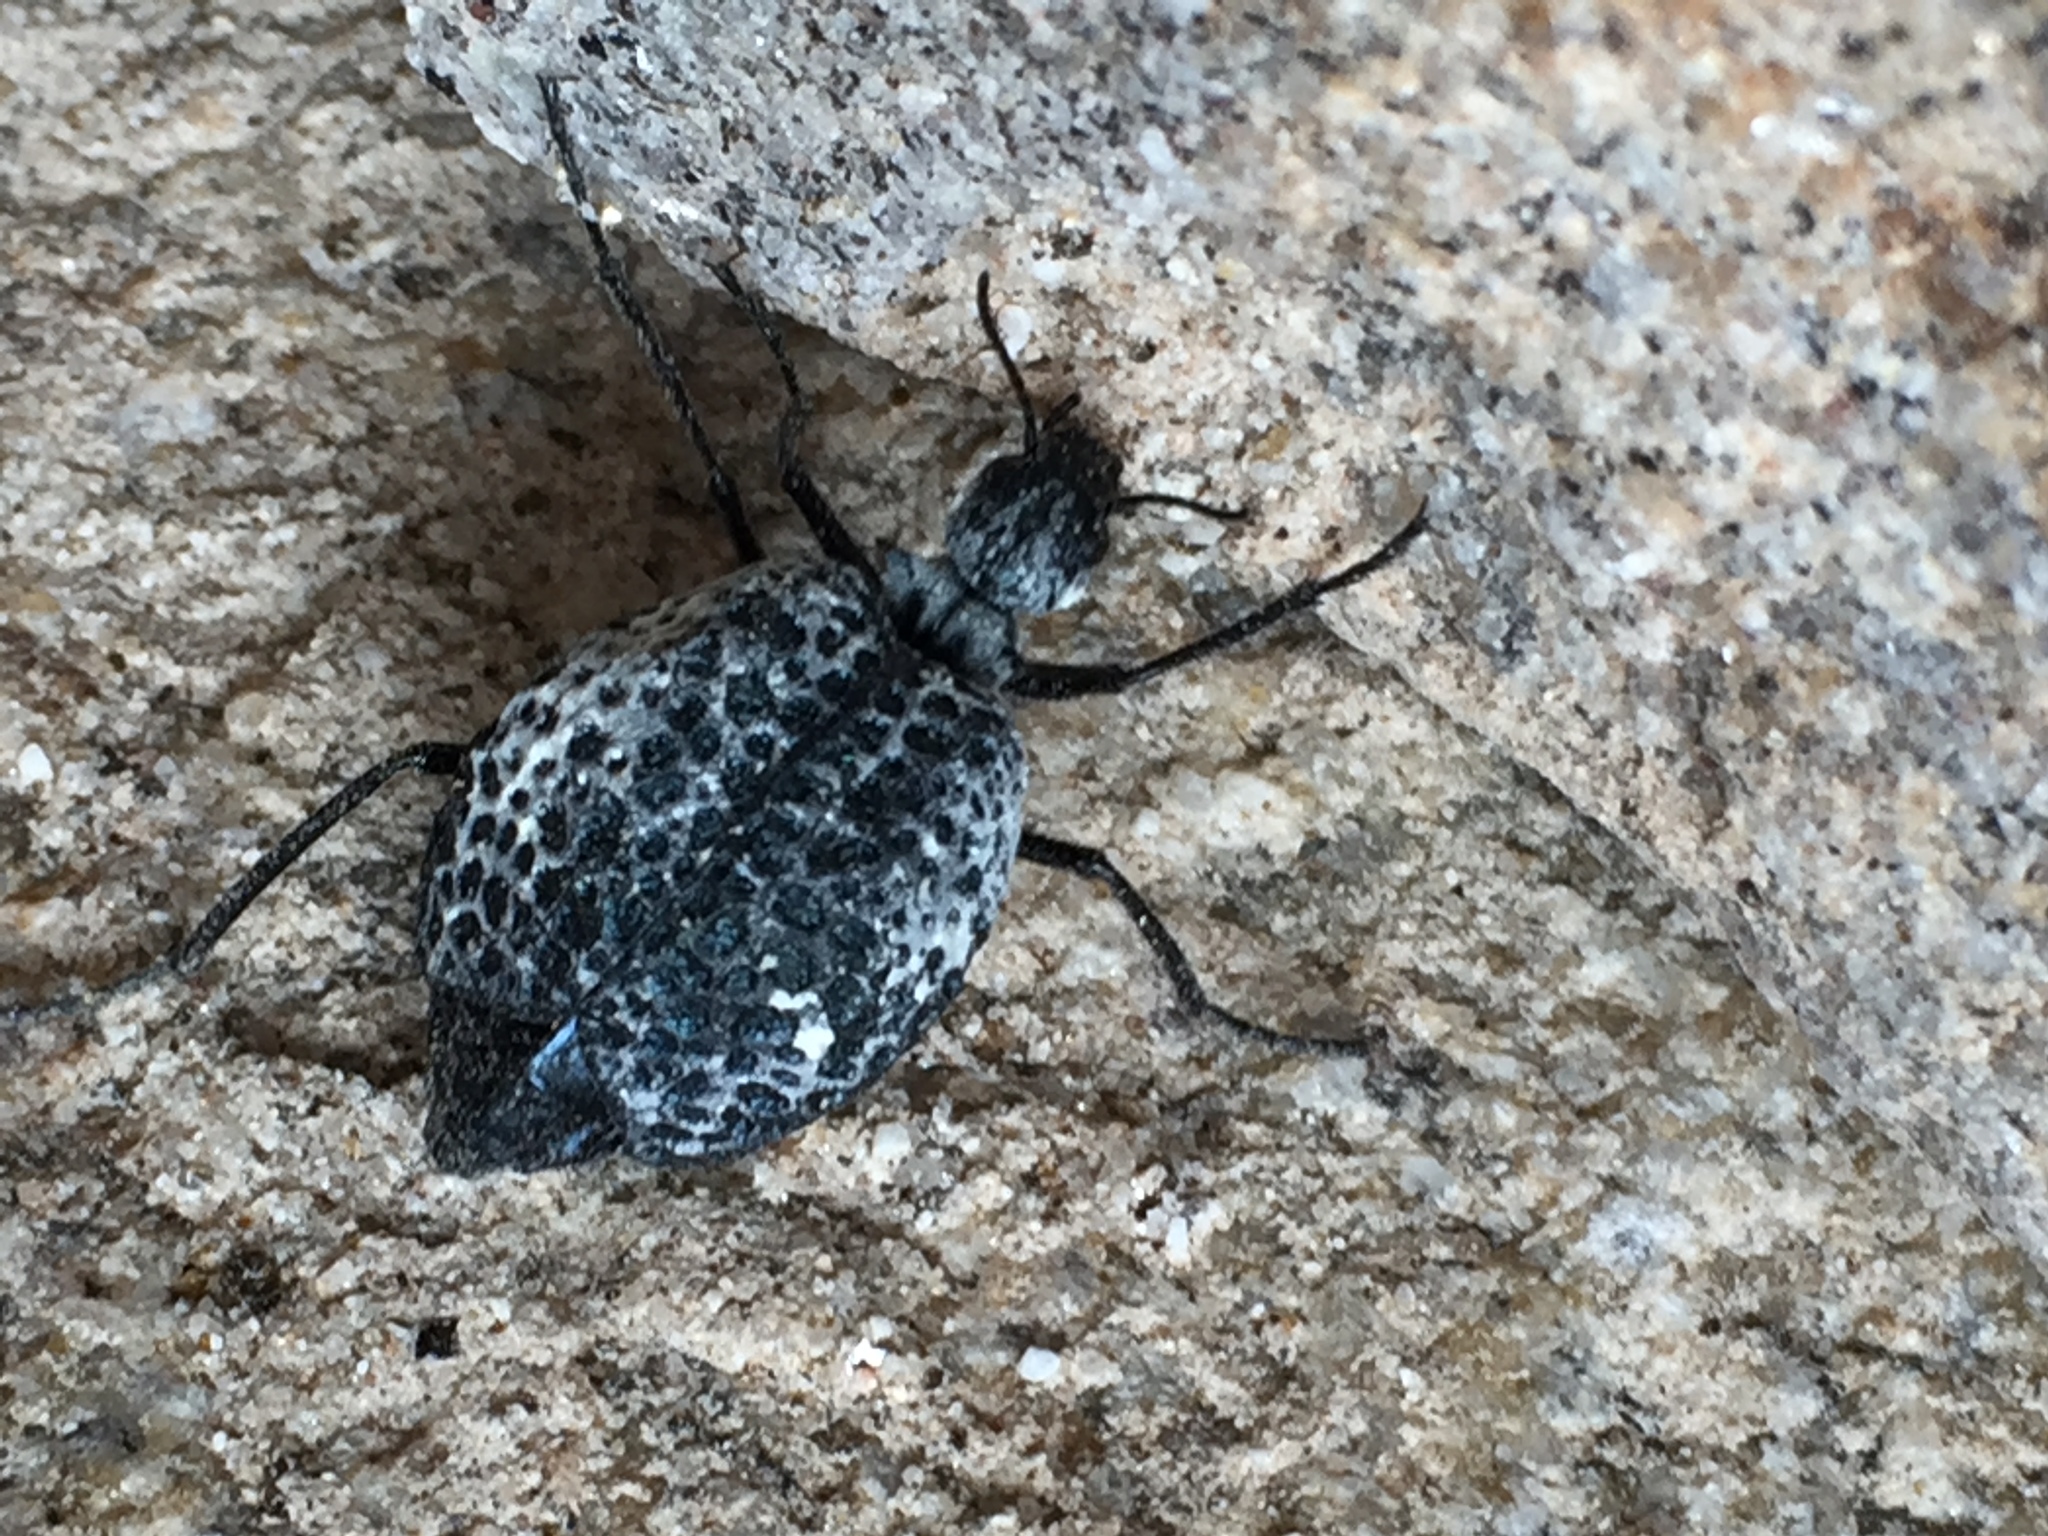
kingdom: Animalia
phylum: Arthropoda
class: Insecta
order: Coleoptera
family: Meloidae
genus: Cysteodemus
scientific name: Cysteodemus armatus
